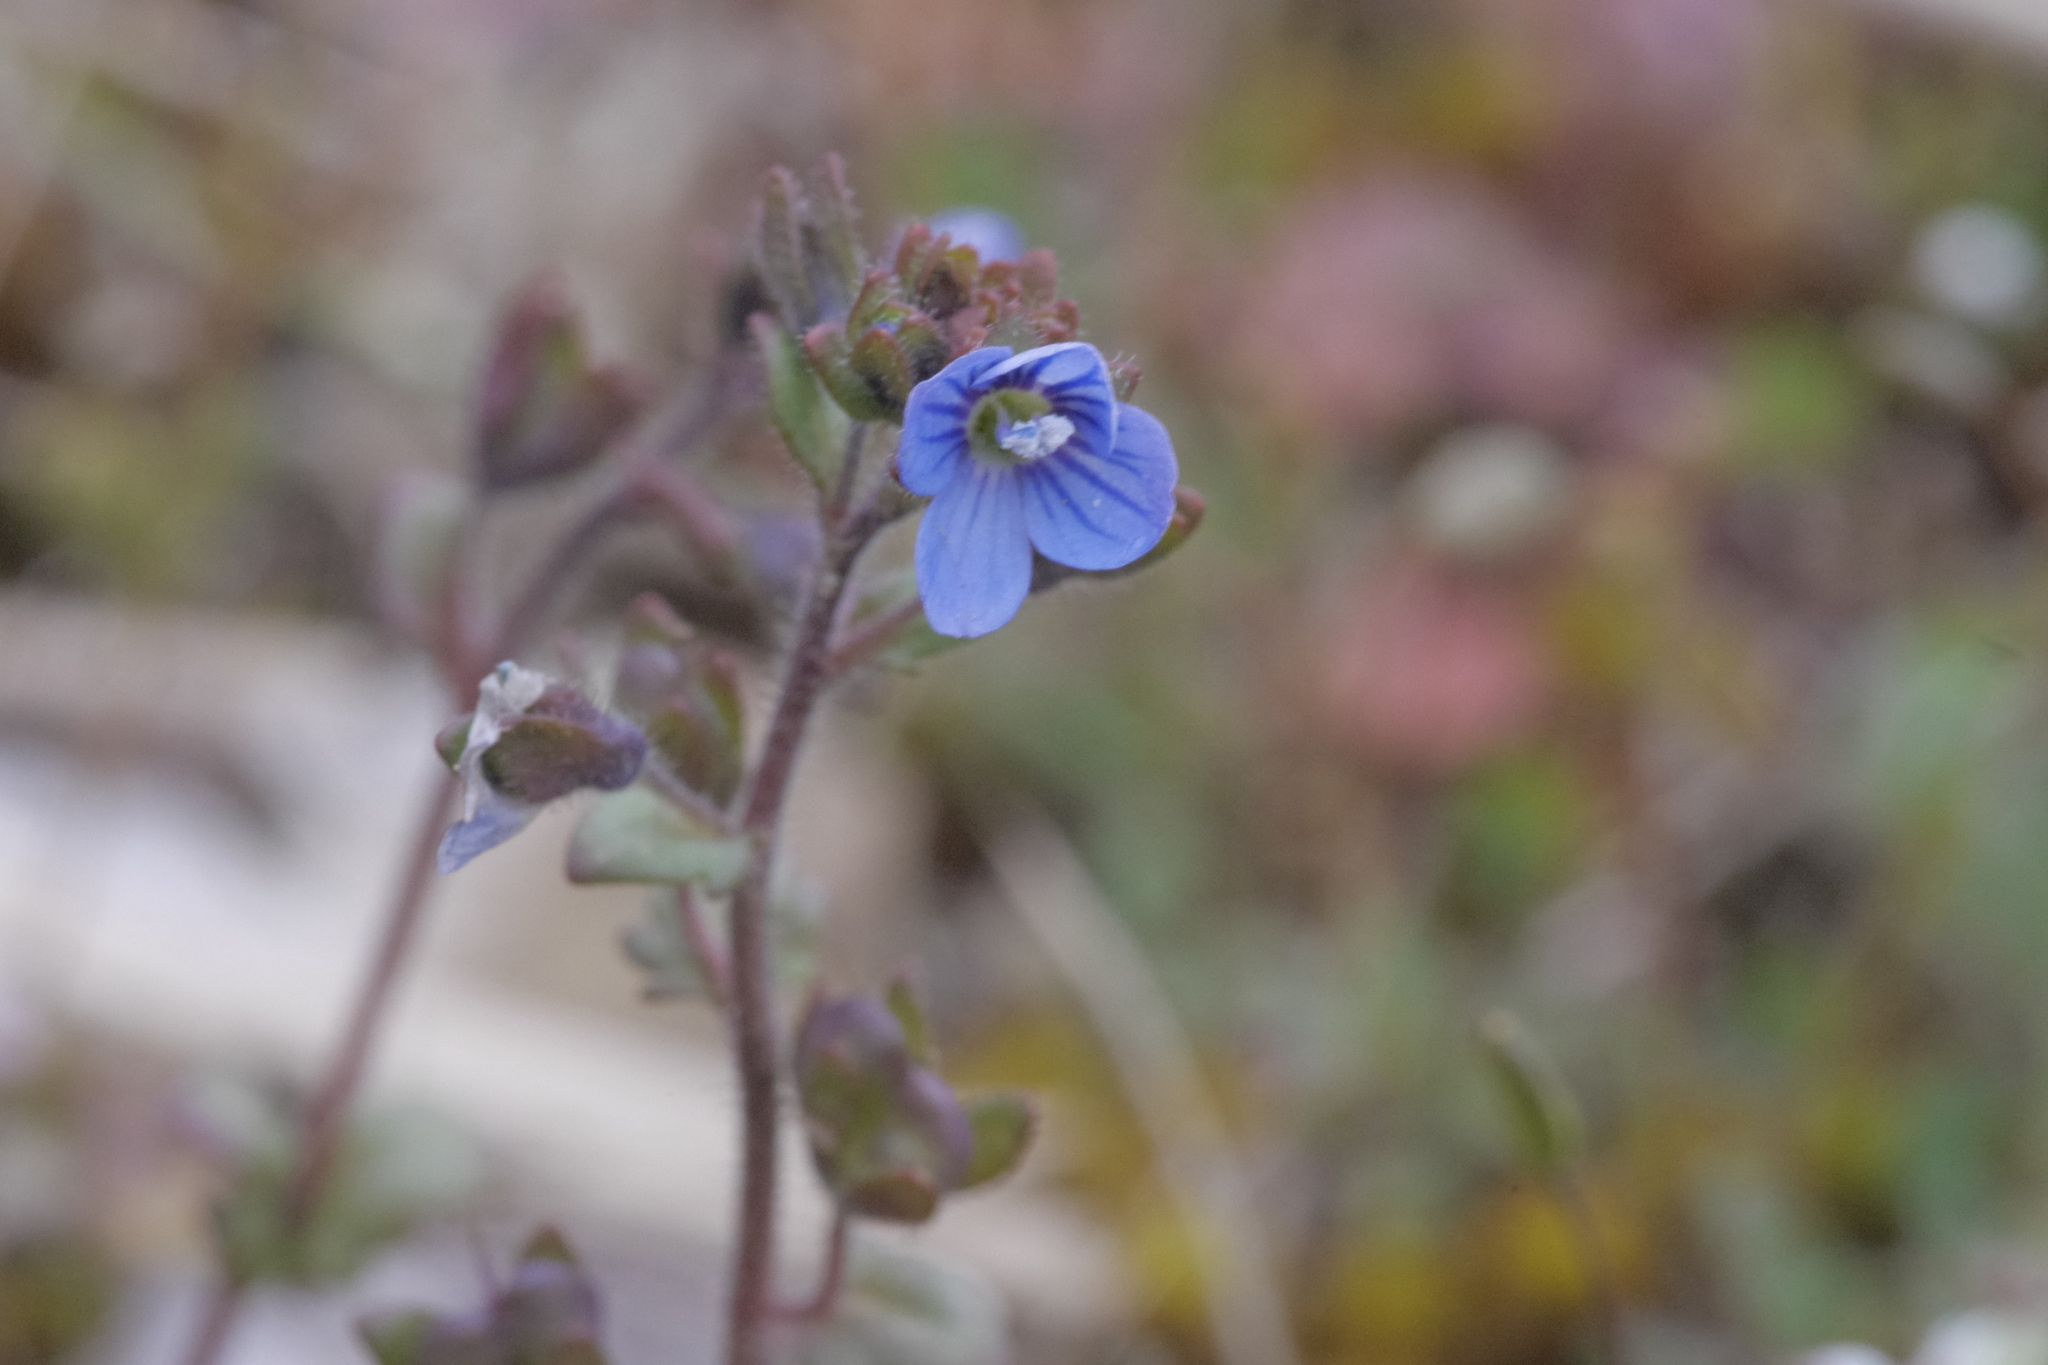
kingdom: Plantae
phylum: Tracheophyta
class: Magnoliopsida
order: Lamiales
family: Plantaginaceae
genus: Veronica
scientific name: Veronica praecox
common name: Breckland speedwell
